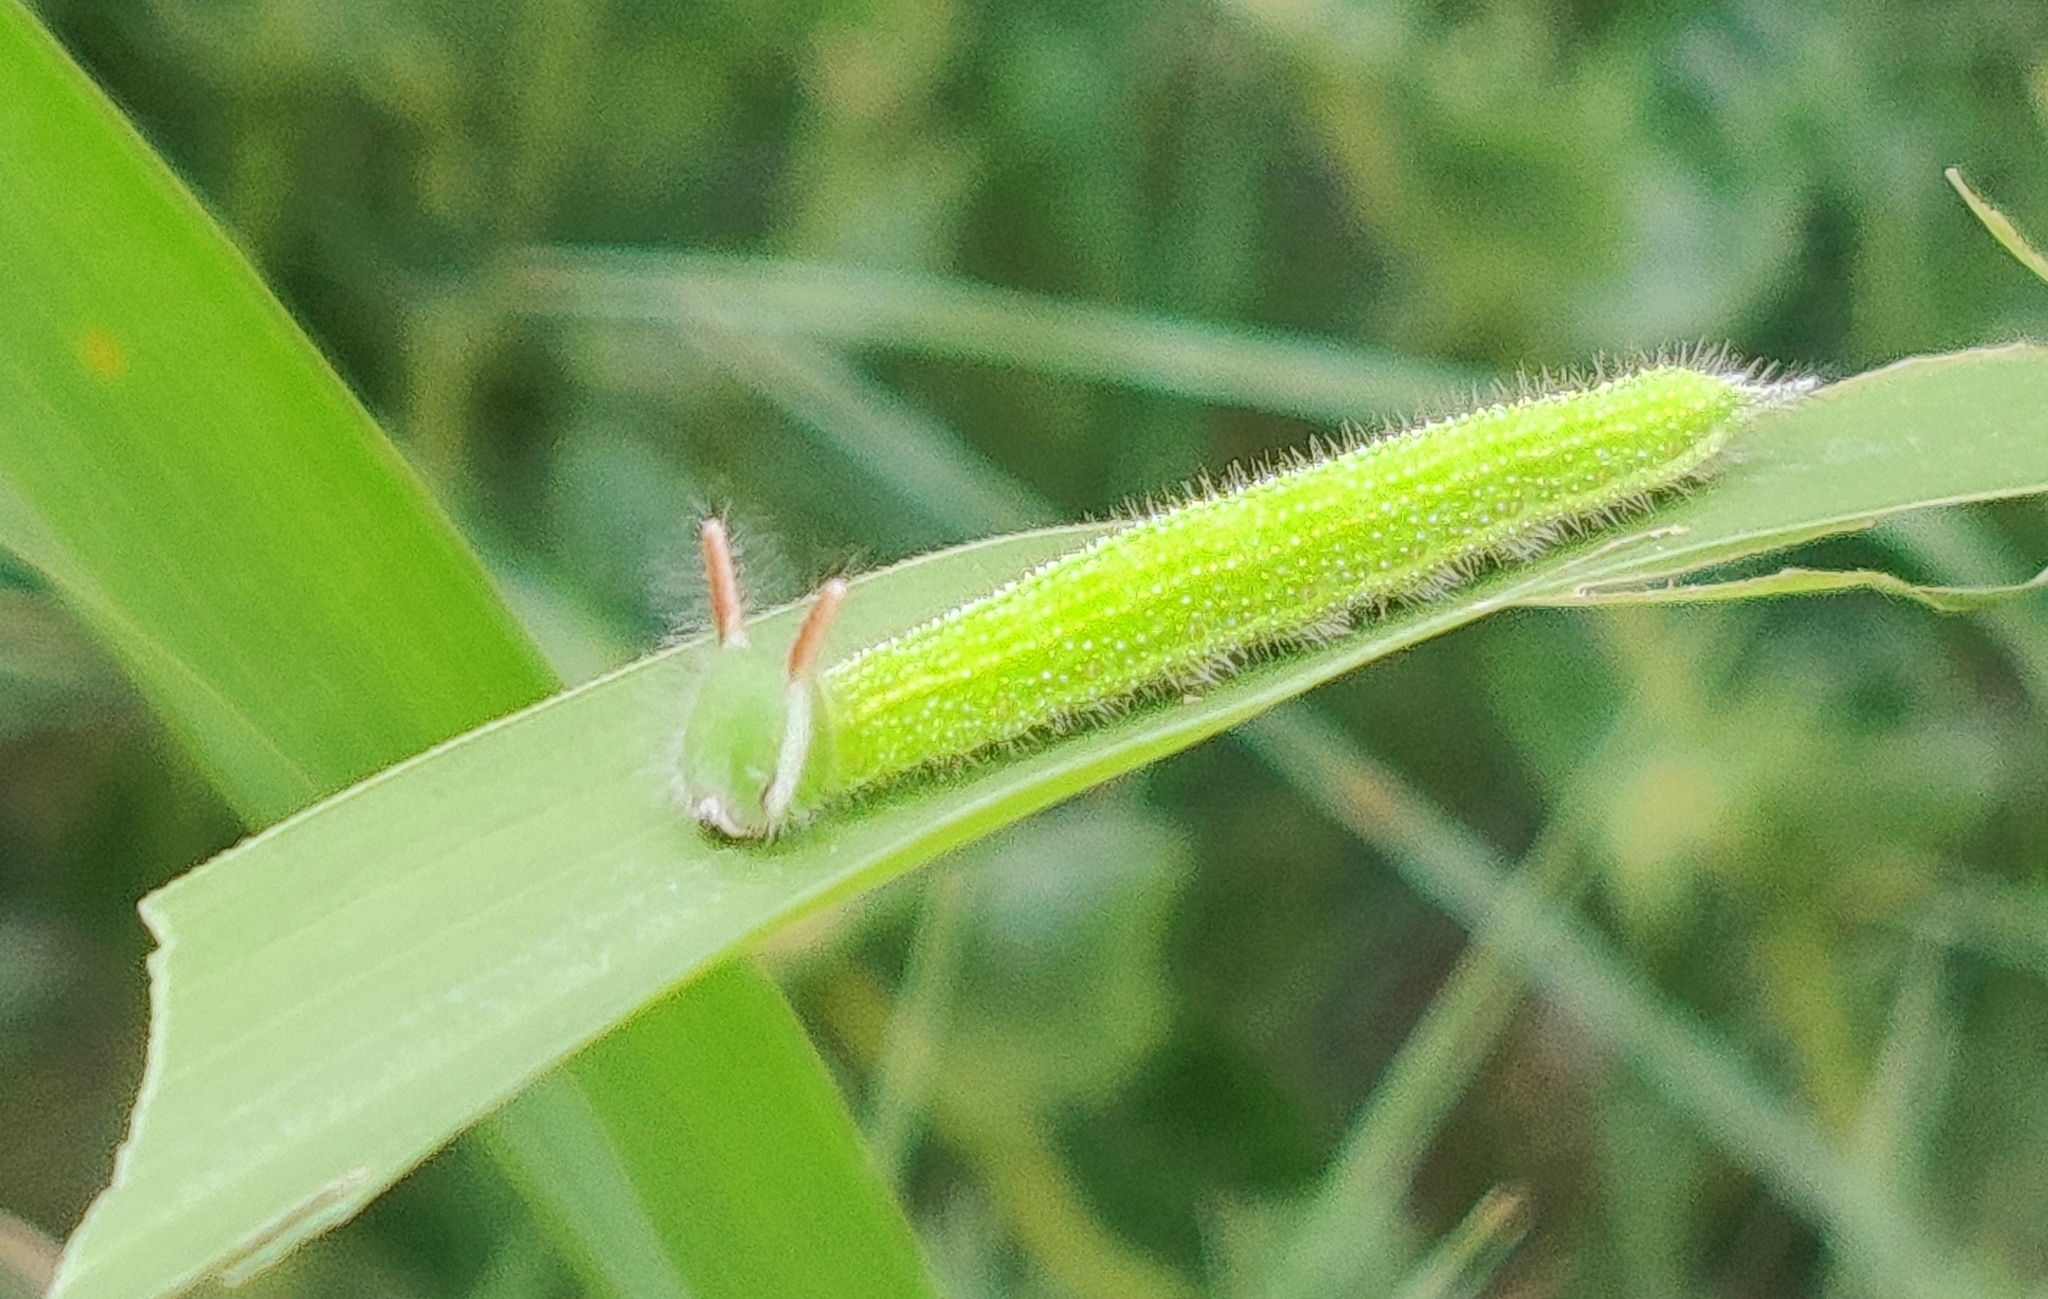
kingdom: Animalia
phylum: Arthropoda
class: Insecta
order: Lepidoptera
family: Nymphalidae
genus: Melanitis
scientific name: Melanitis leda
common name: Twilight brown
